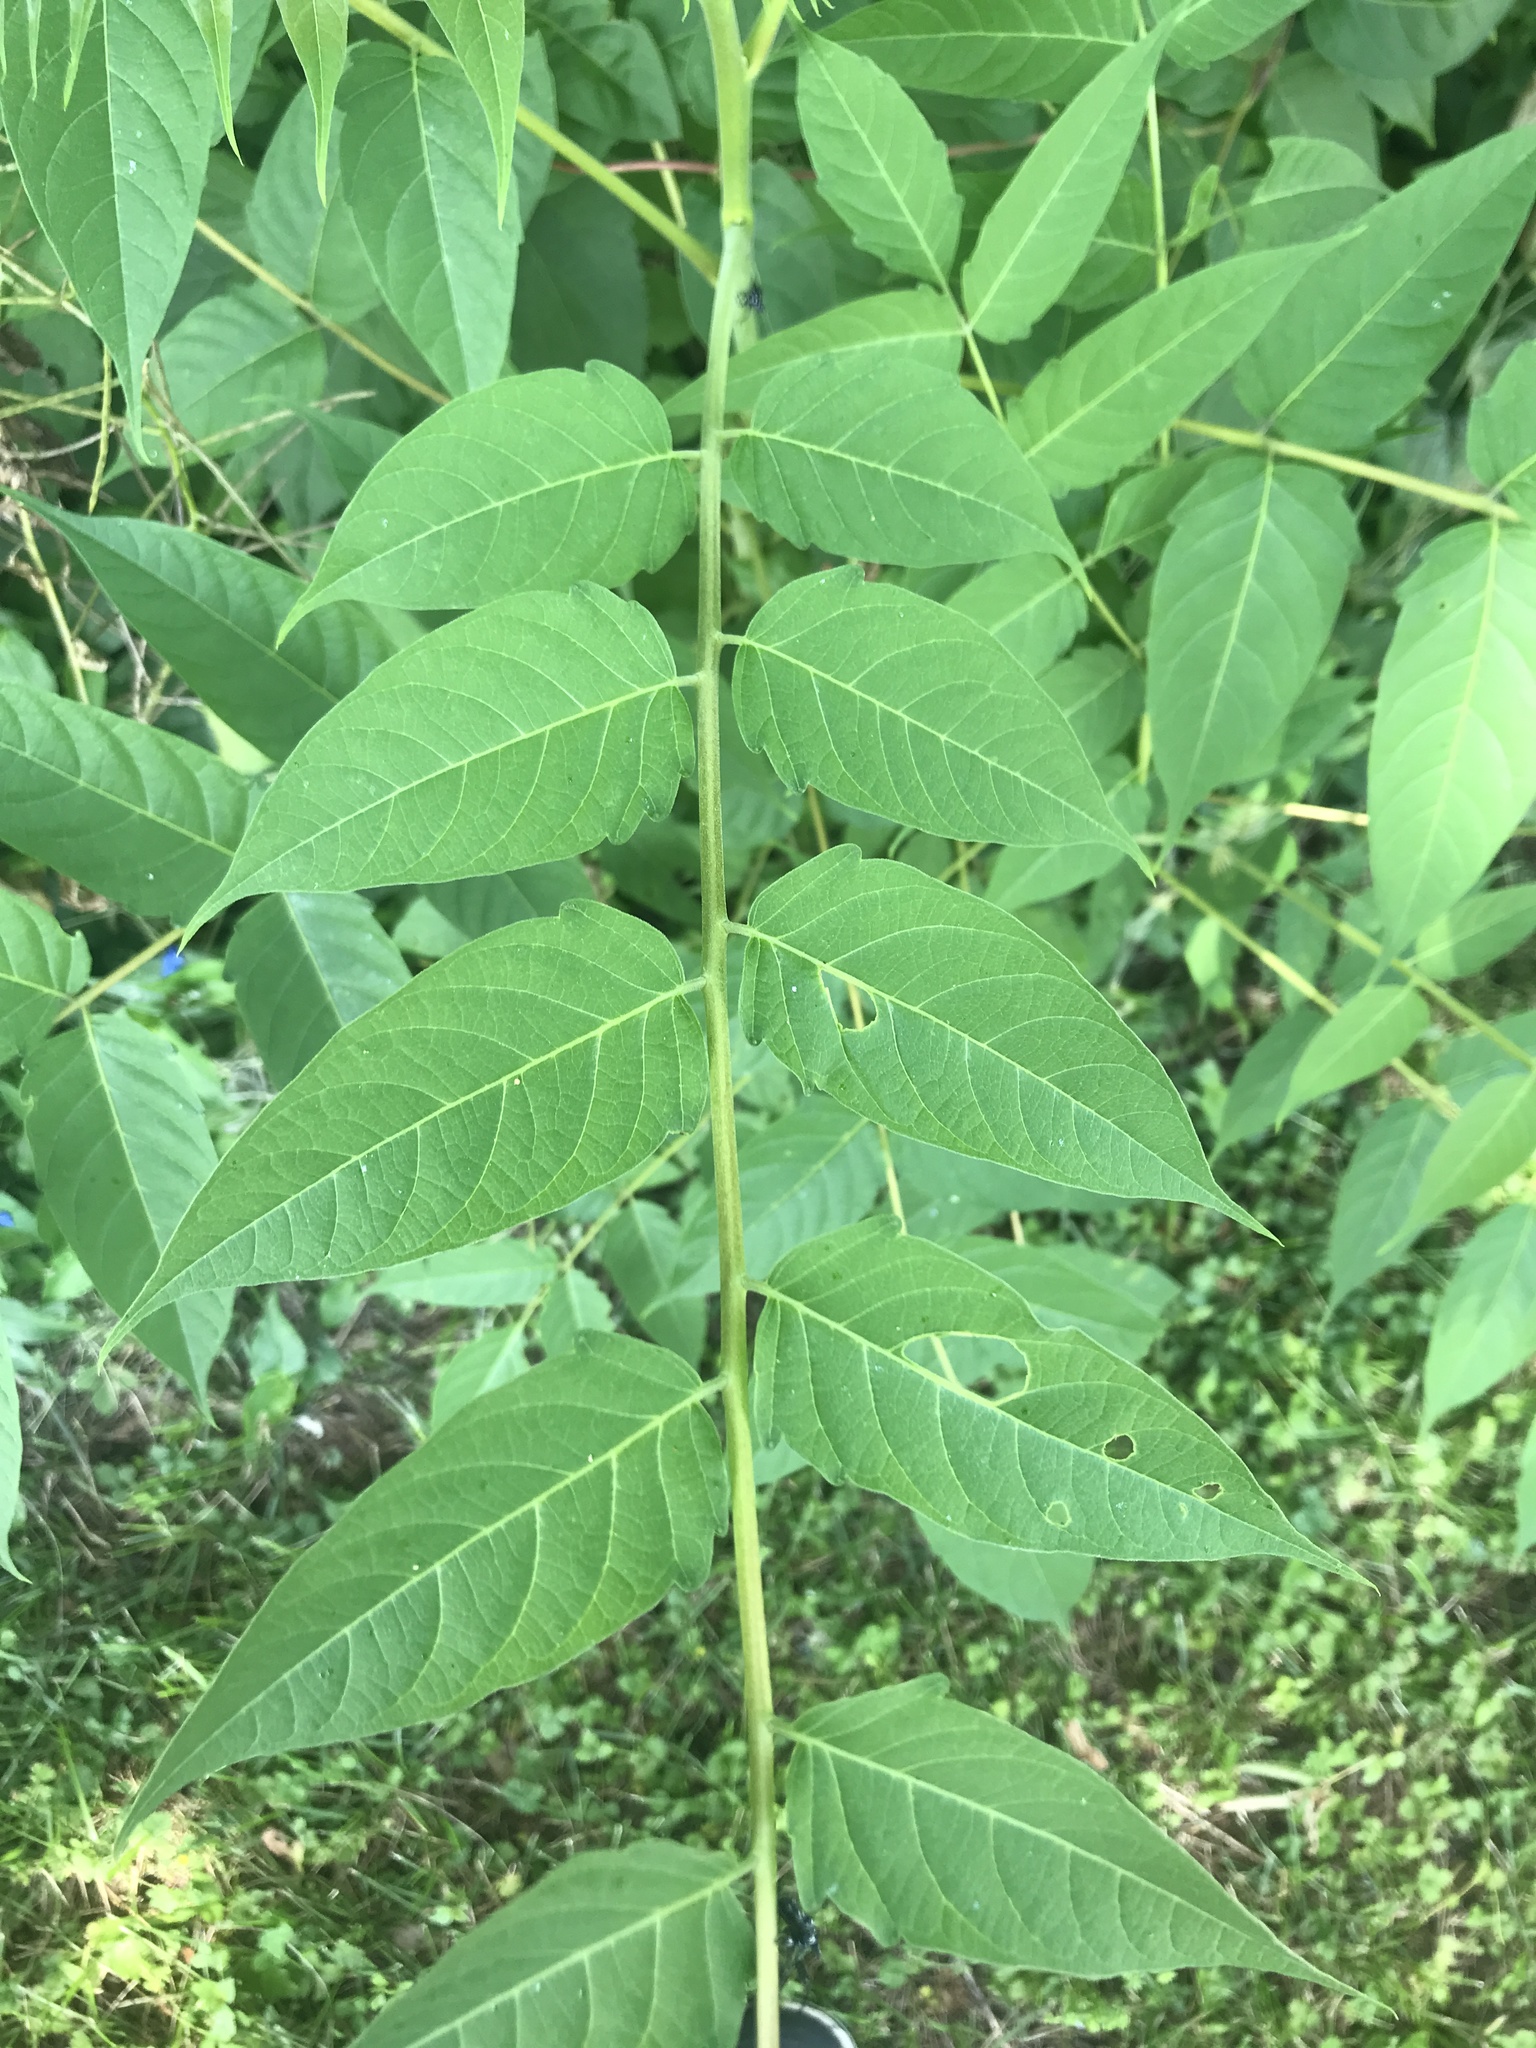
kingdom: Plantae
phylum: Tracheophyta
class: Magnoliopsida
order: Sapindales
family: Simaroubaceae
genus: Ailanthus
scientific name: Ailanthus altissima
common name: Tree-of-heaven
